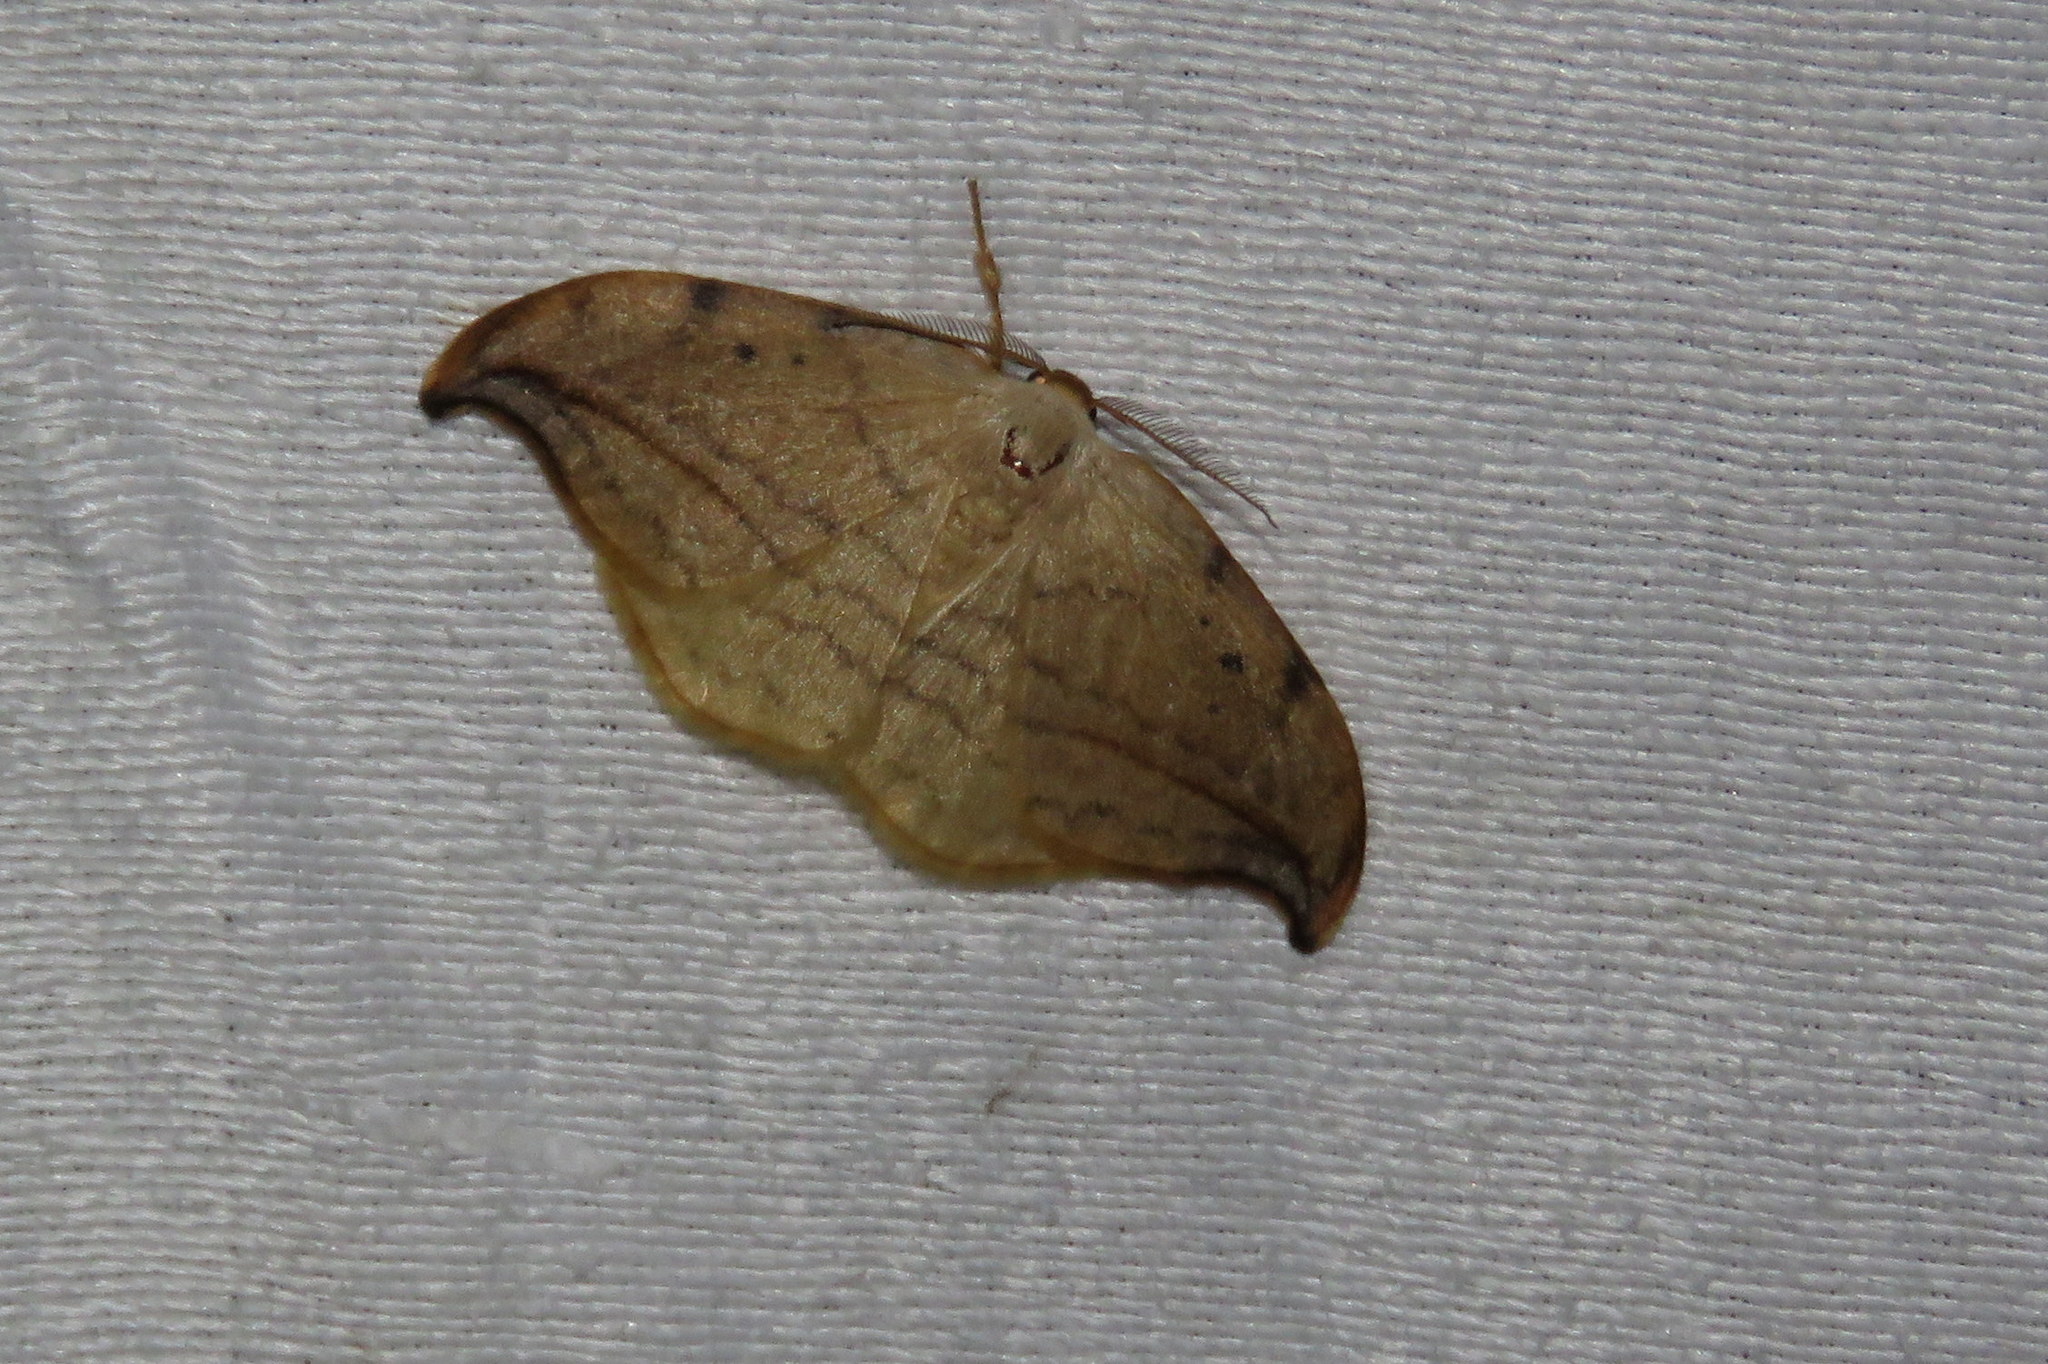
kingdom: Animalia
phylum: Arthropoda
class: Insecta
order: Lepidoptera
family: Drepanidae
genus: Drepana
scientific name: Drepana arcuata
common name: Arched hooktip moth
